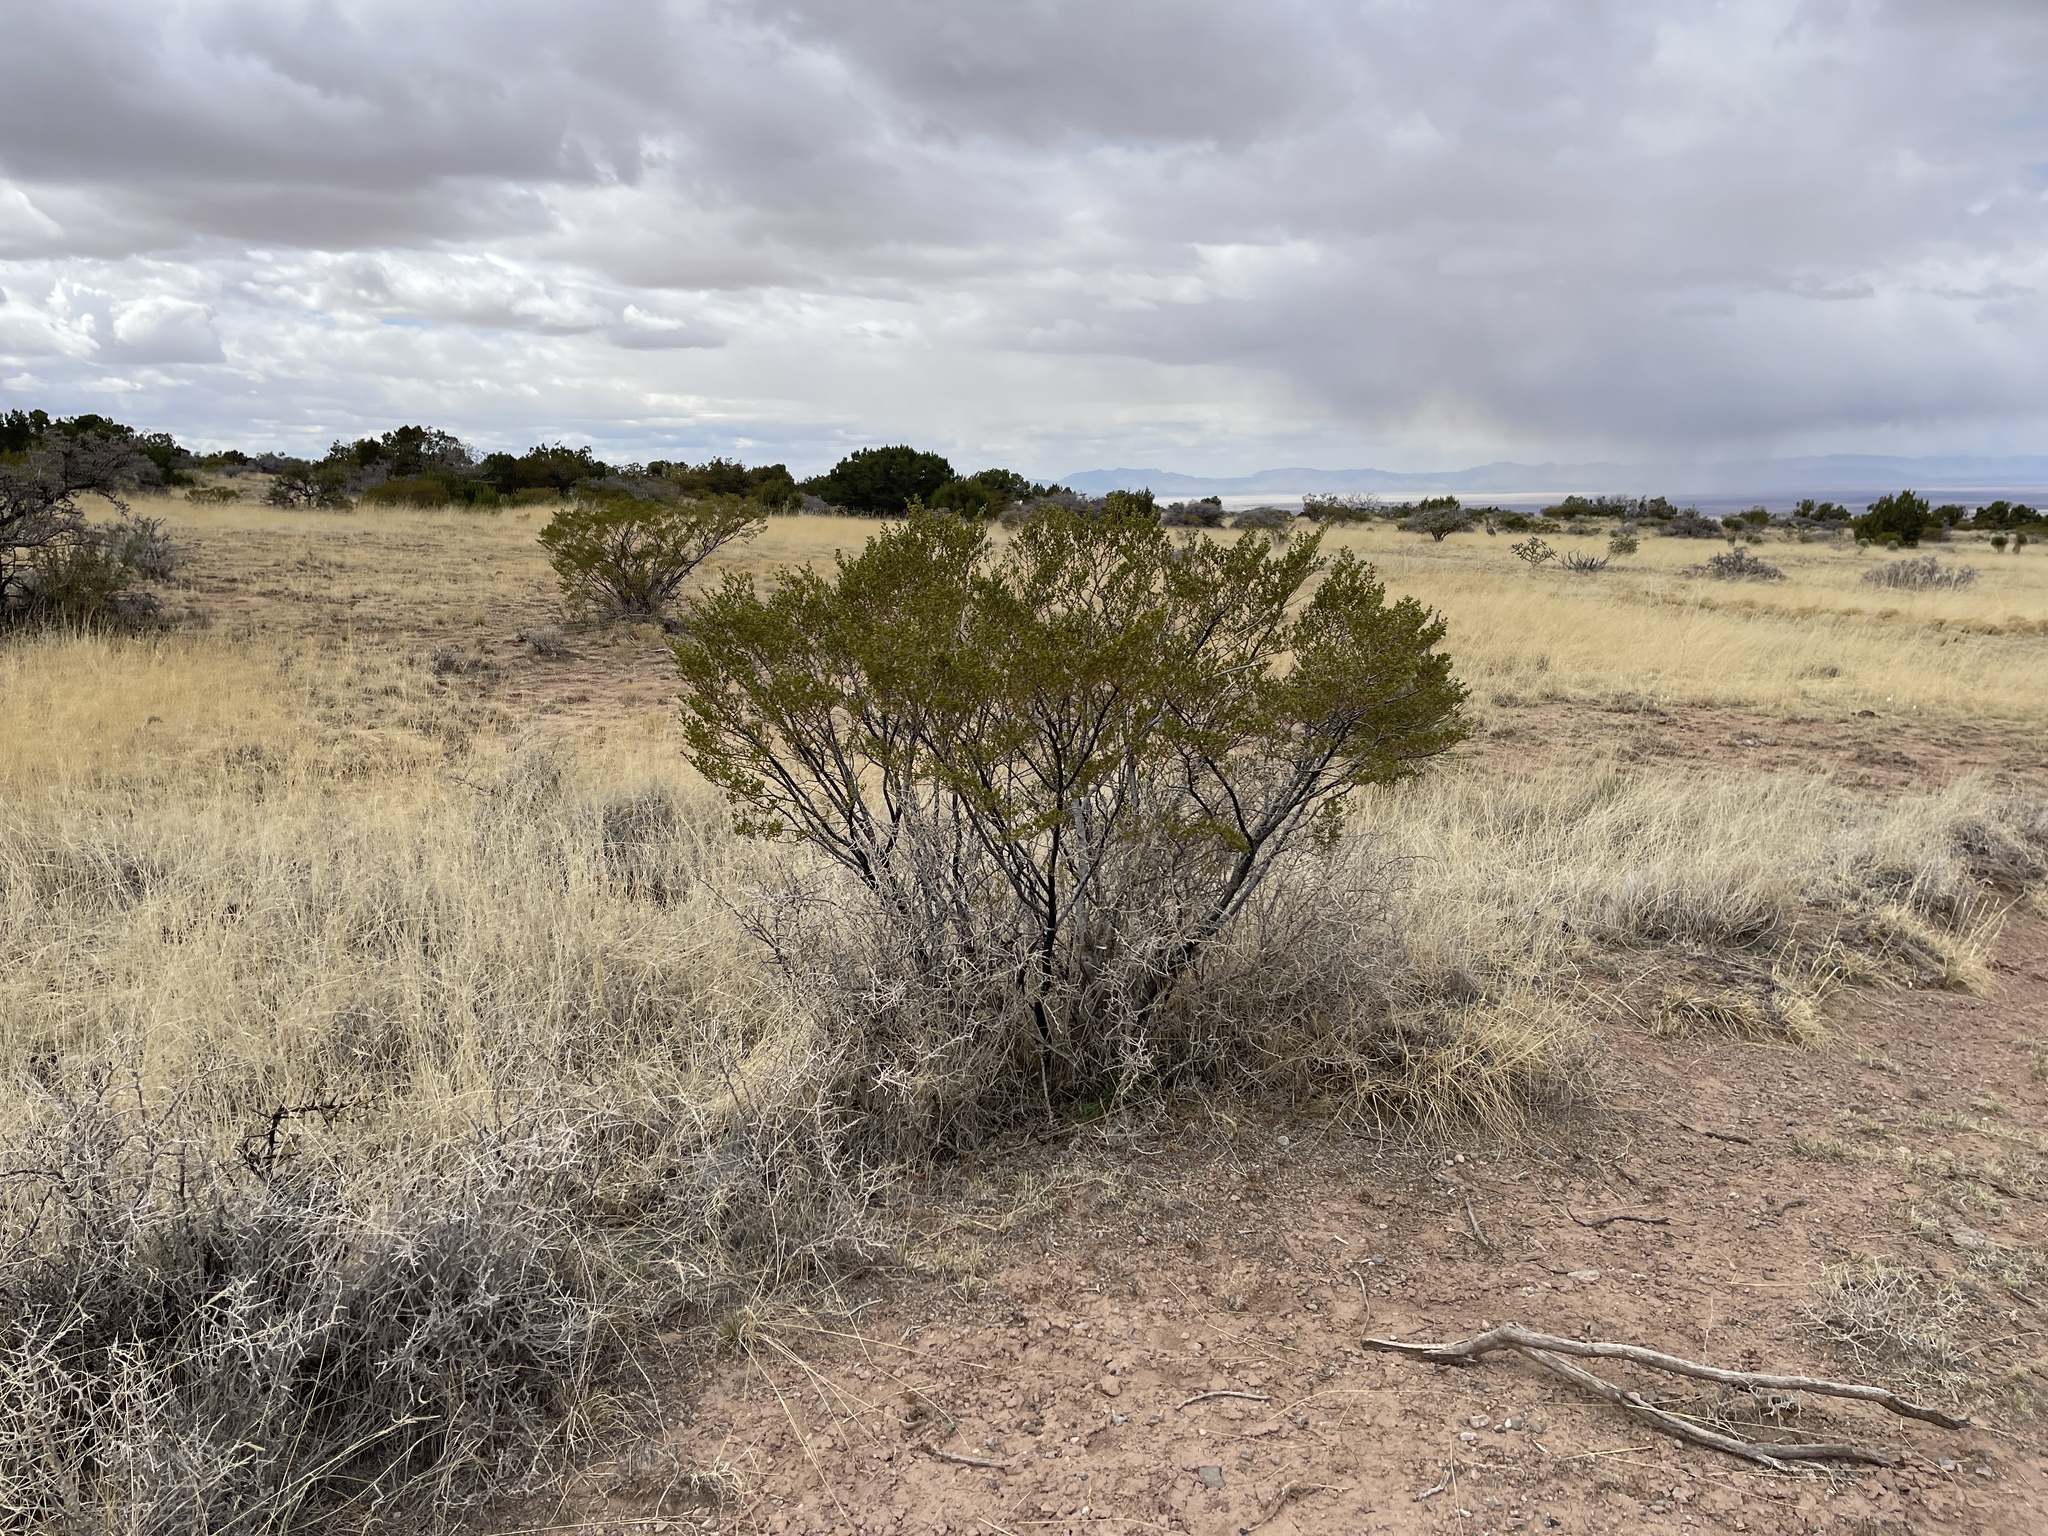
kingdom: Plantae
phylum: Tracheophyta
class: Magnoliopsida
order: Zygophyllales
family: Zygophyllaceae
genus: Larrea
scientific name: Larrea tridentata
